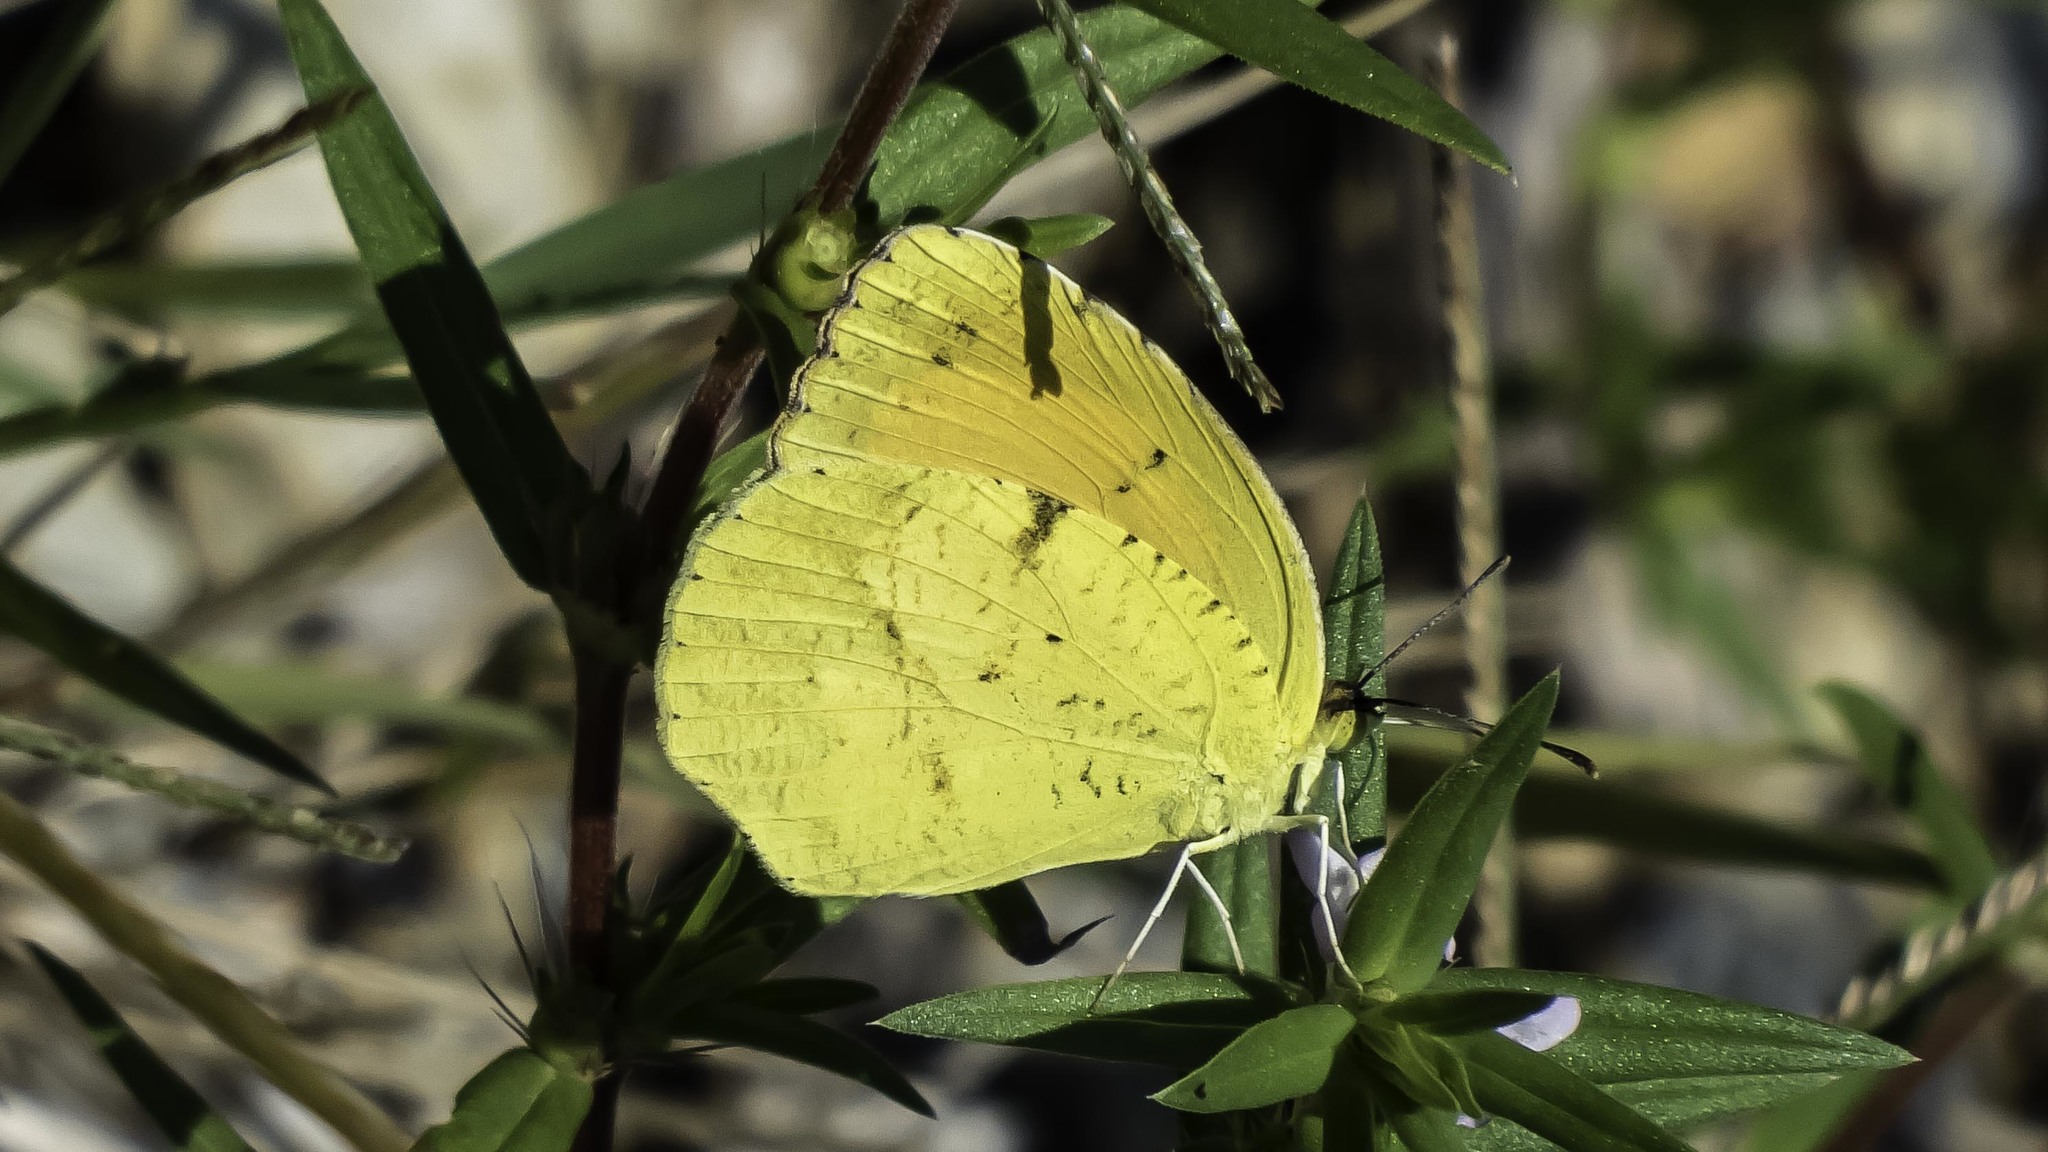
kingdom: Animalia
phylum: Arthropoda
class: Insecta
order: Lepidoptera
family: Pieridae
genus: Abaeis
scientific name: Abaeis nicippe
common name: Sleepy orange
